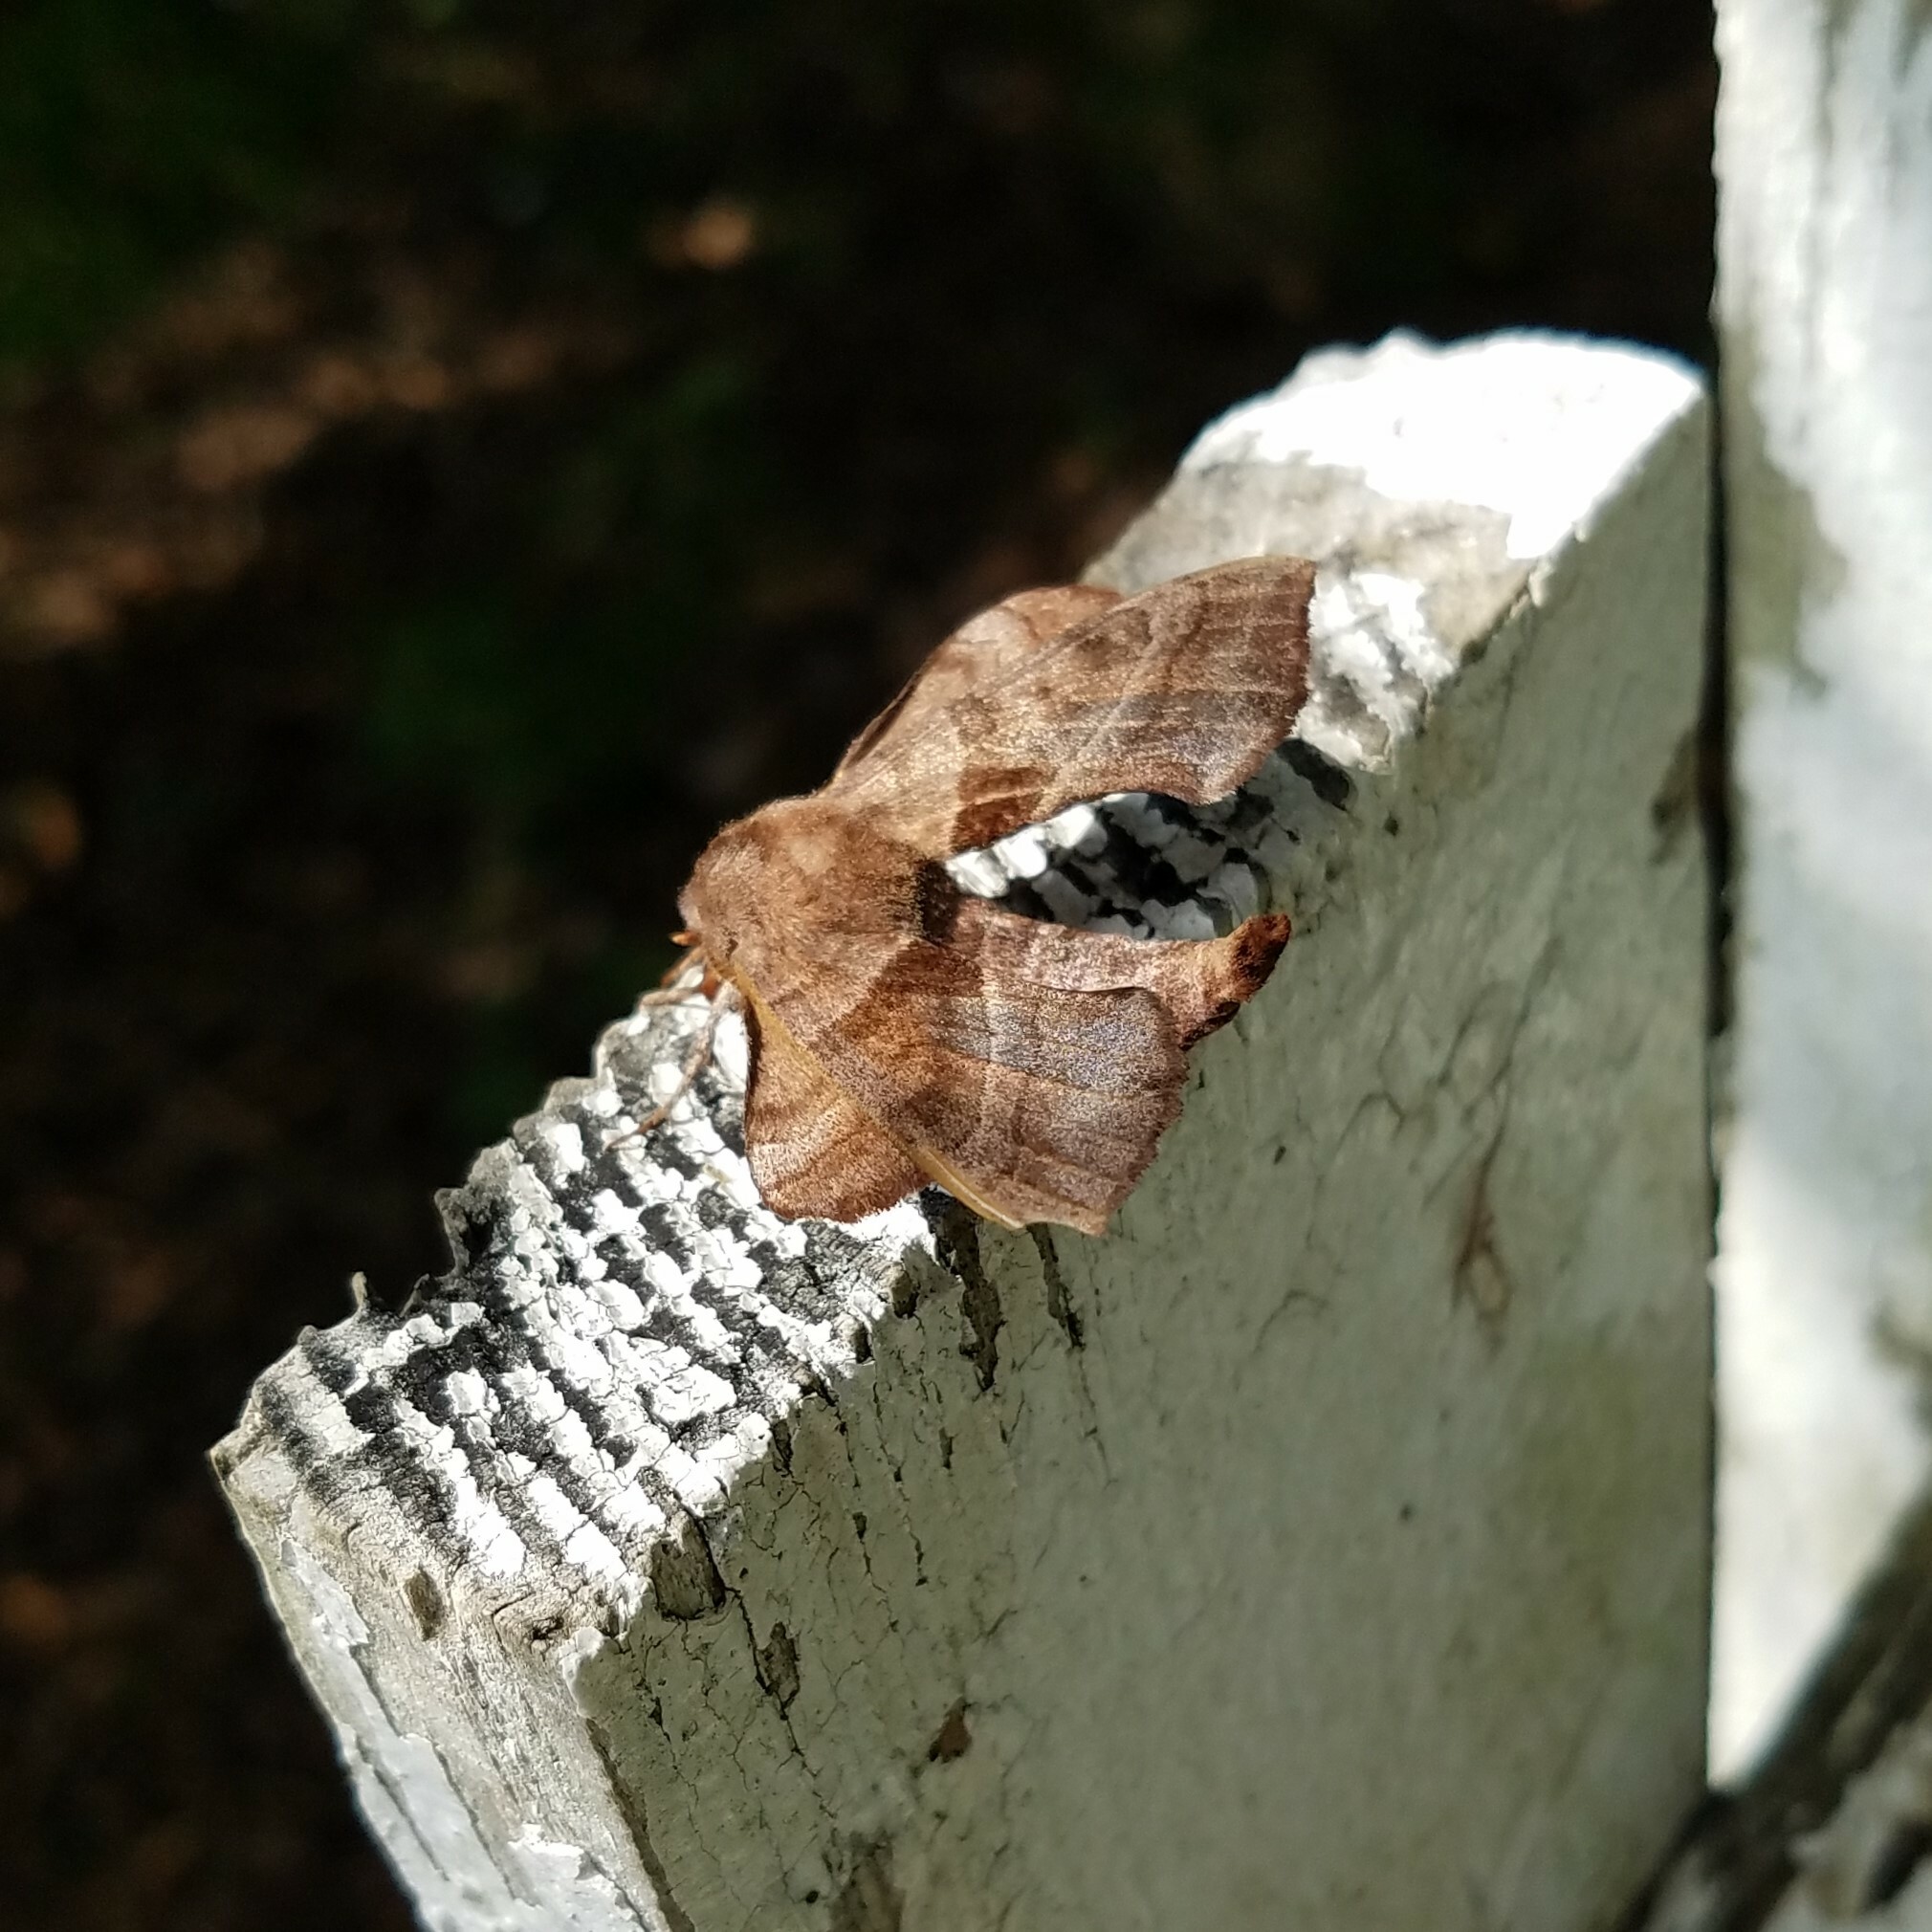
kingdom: Animalia
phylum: Arthropoda
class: Insecta
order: Lepidoptera
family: Sphingidae
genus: Amorpha
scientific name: Amorpha juglandis
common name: Walnut sphinx
